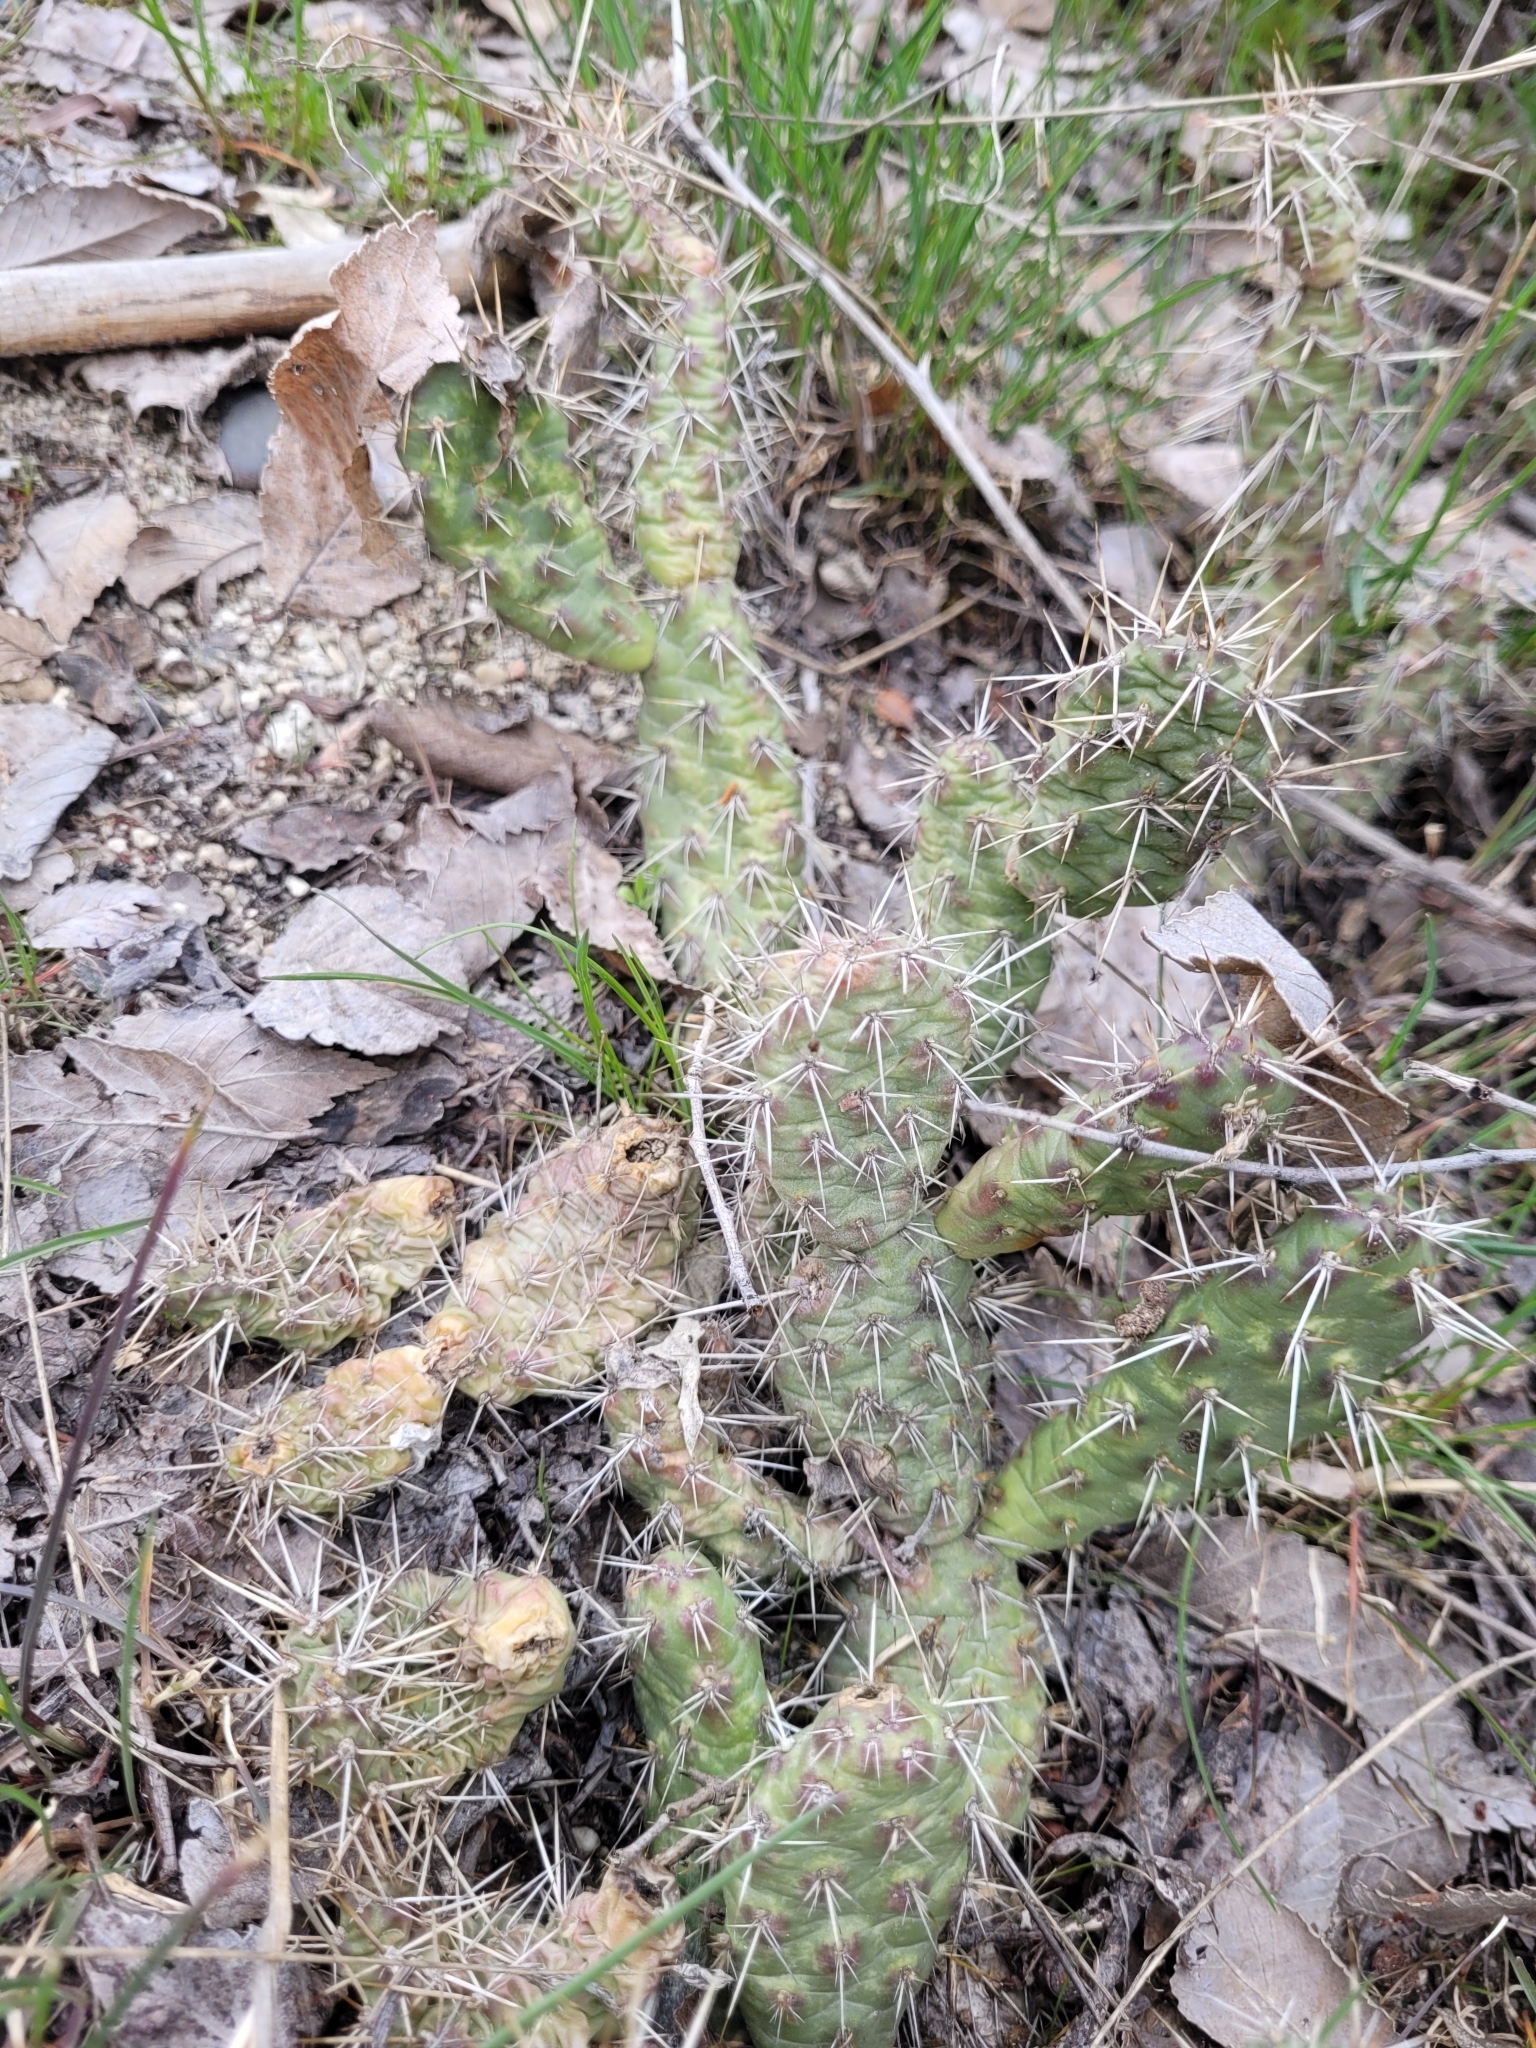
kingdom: Plantae
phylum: Tracheophyta
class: Magnoliopsida
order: Caryophyllales
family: Cactaceae
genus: Opuntia
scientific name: Opuntia fragilis
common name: Brittle cactus
